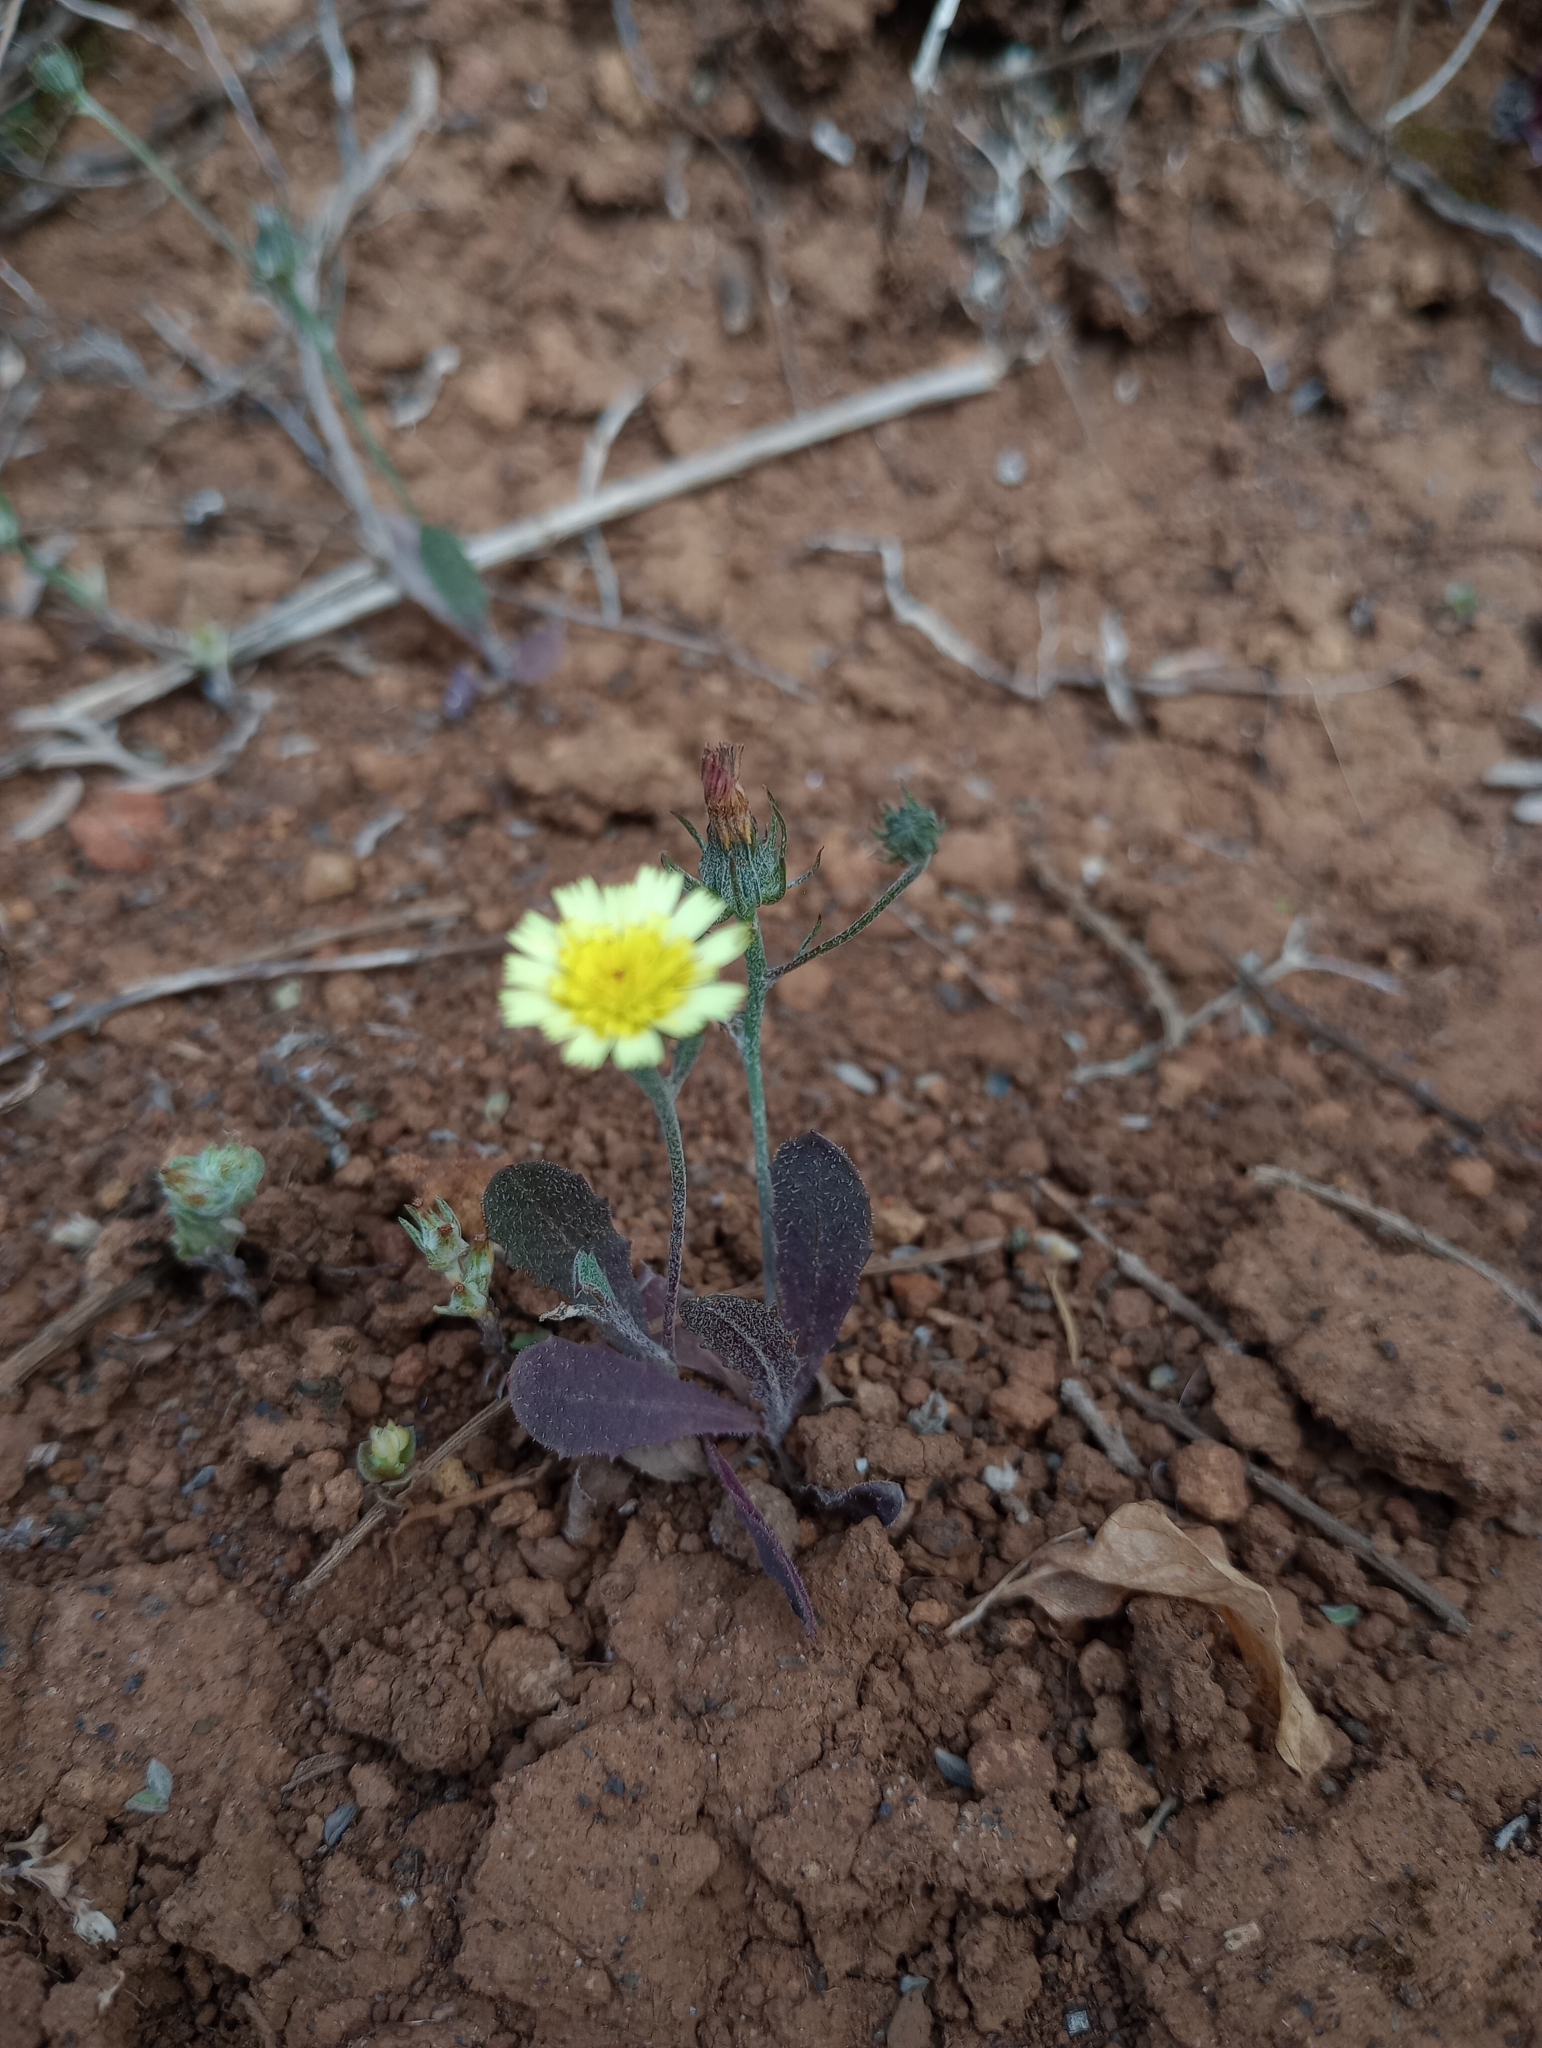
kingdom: Plantae
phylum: Tracheophyta
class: Magnoliopsida
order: Asterales
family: Asteraceae
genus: Tolpis
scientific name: Tolpis barbata
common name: Yellow hawkweed
